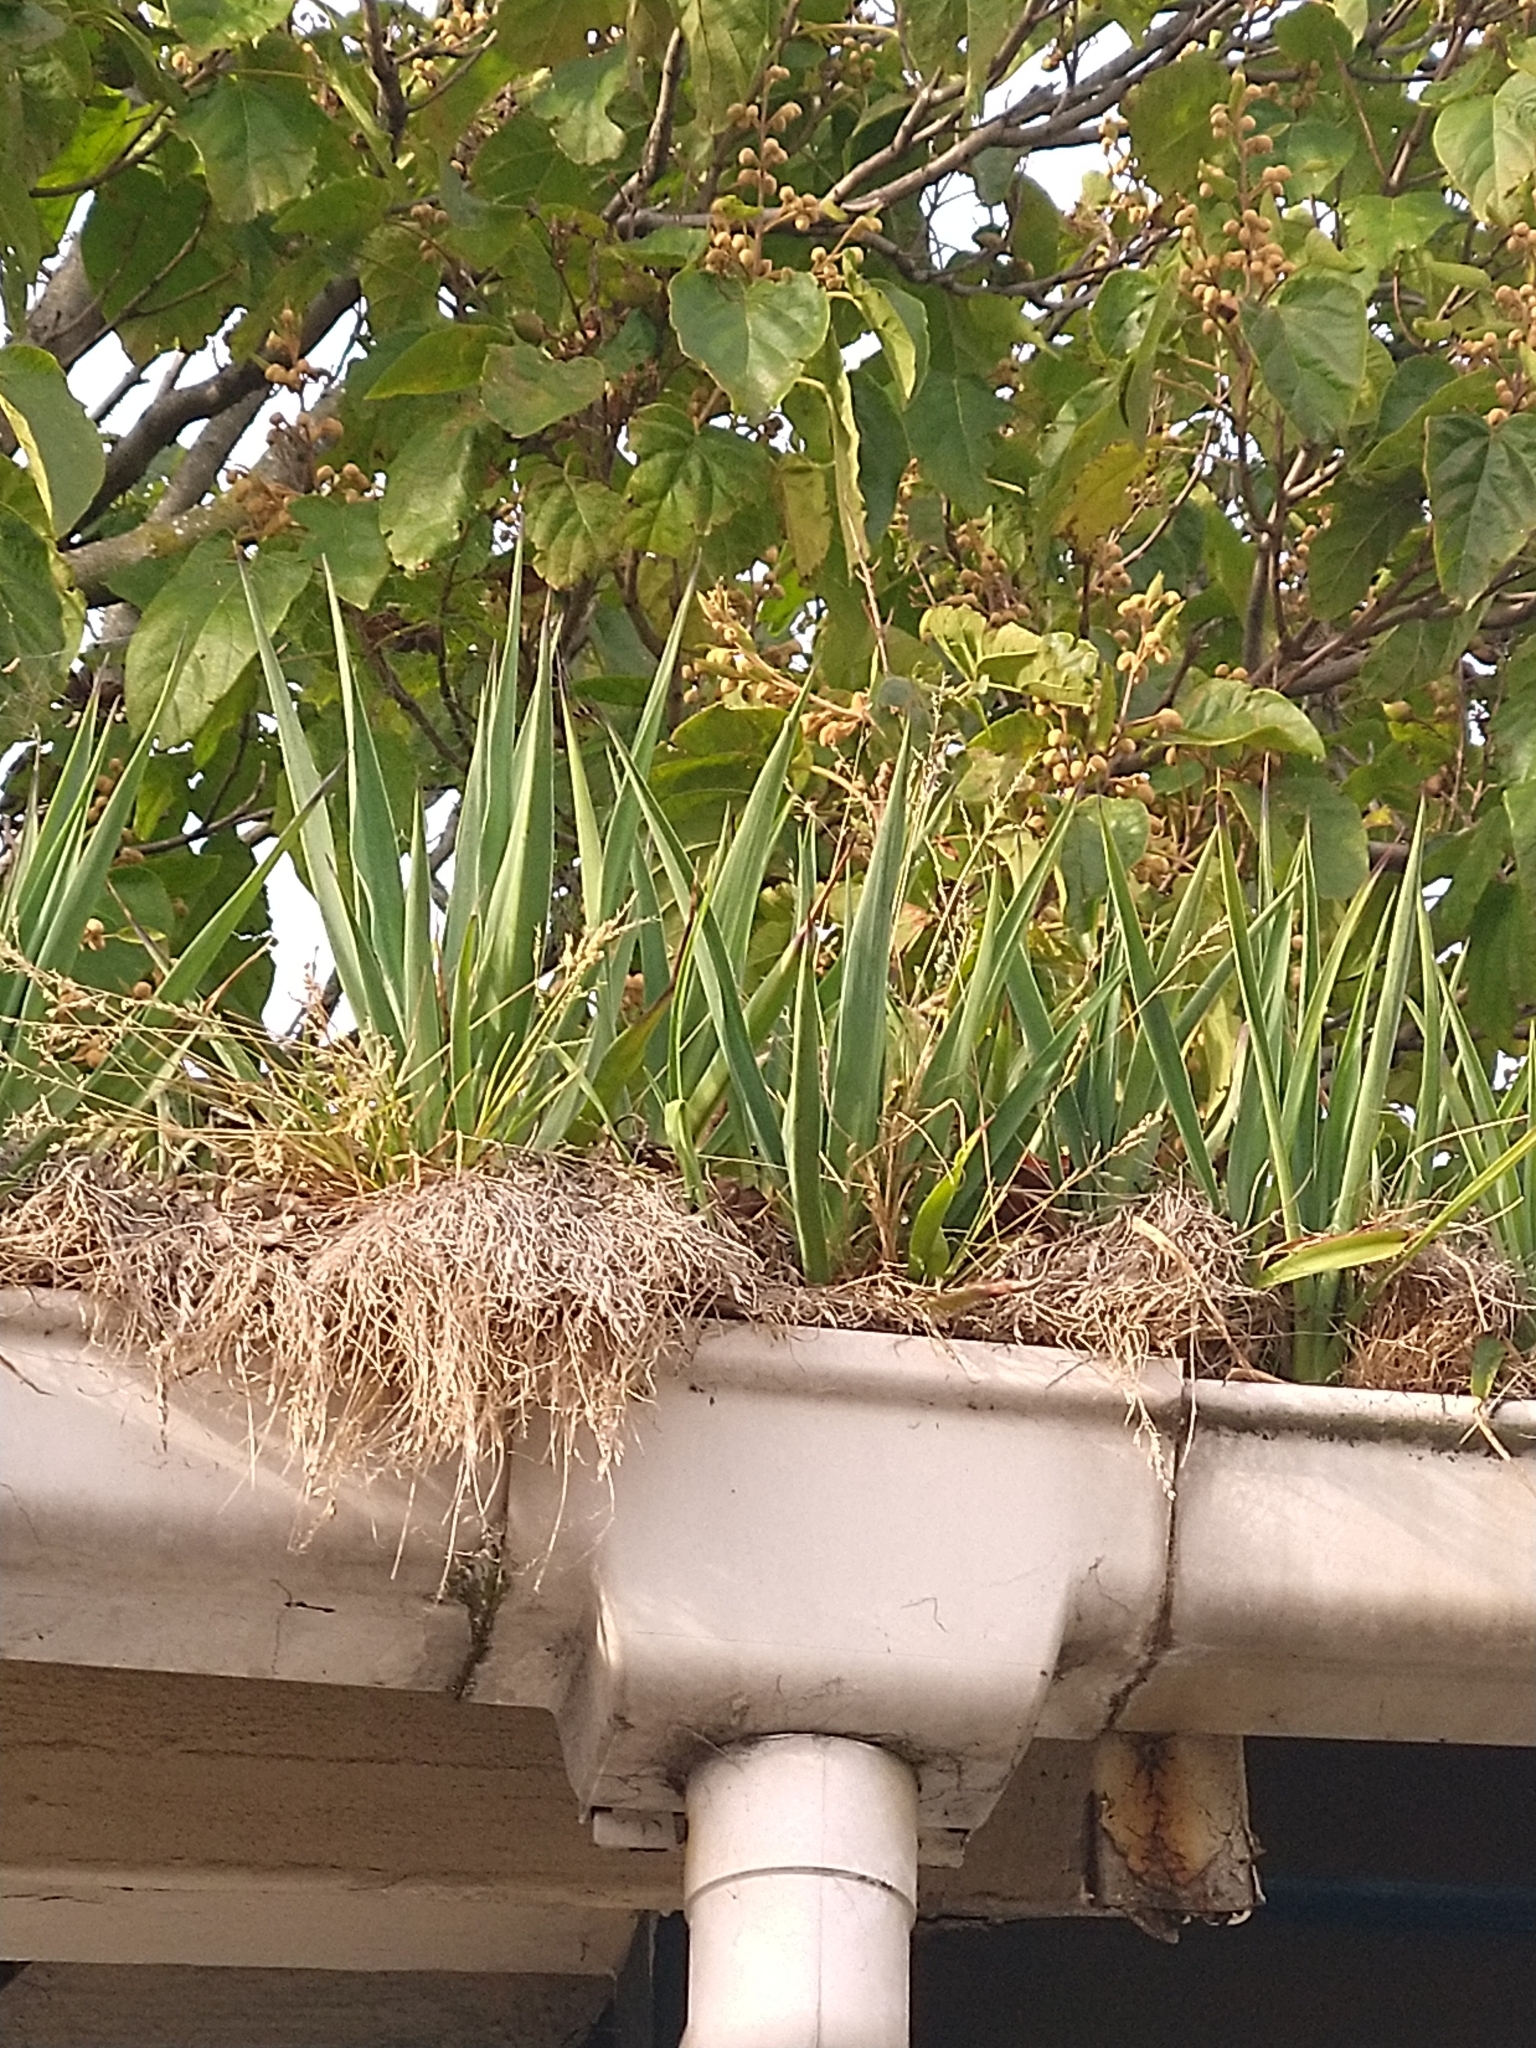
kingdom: Plantae
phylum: Tracheophyta
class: Liliopsida
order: Asparagales
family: Asparagaceae
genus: Yucca
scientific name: Yucca gloriosa
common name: Spanish-dagger
